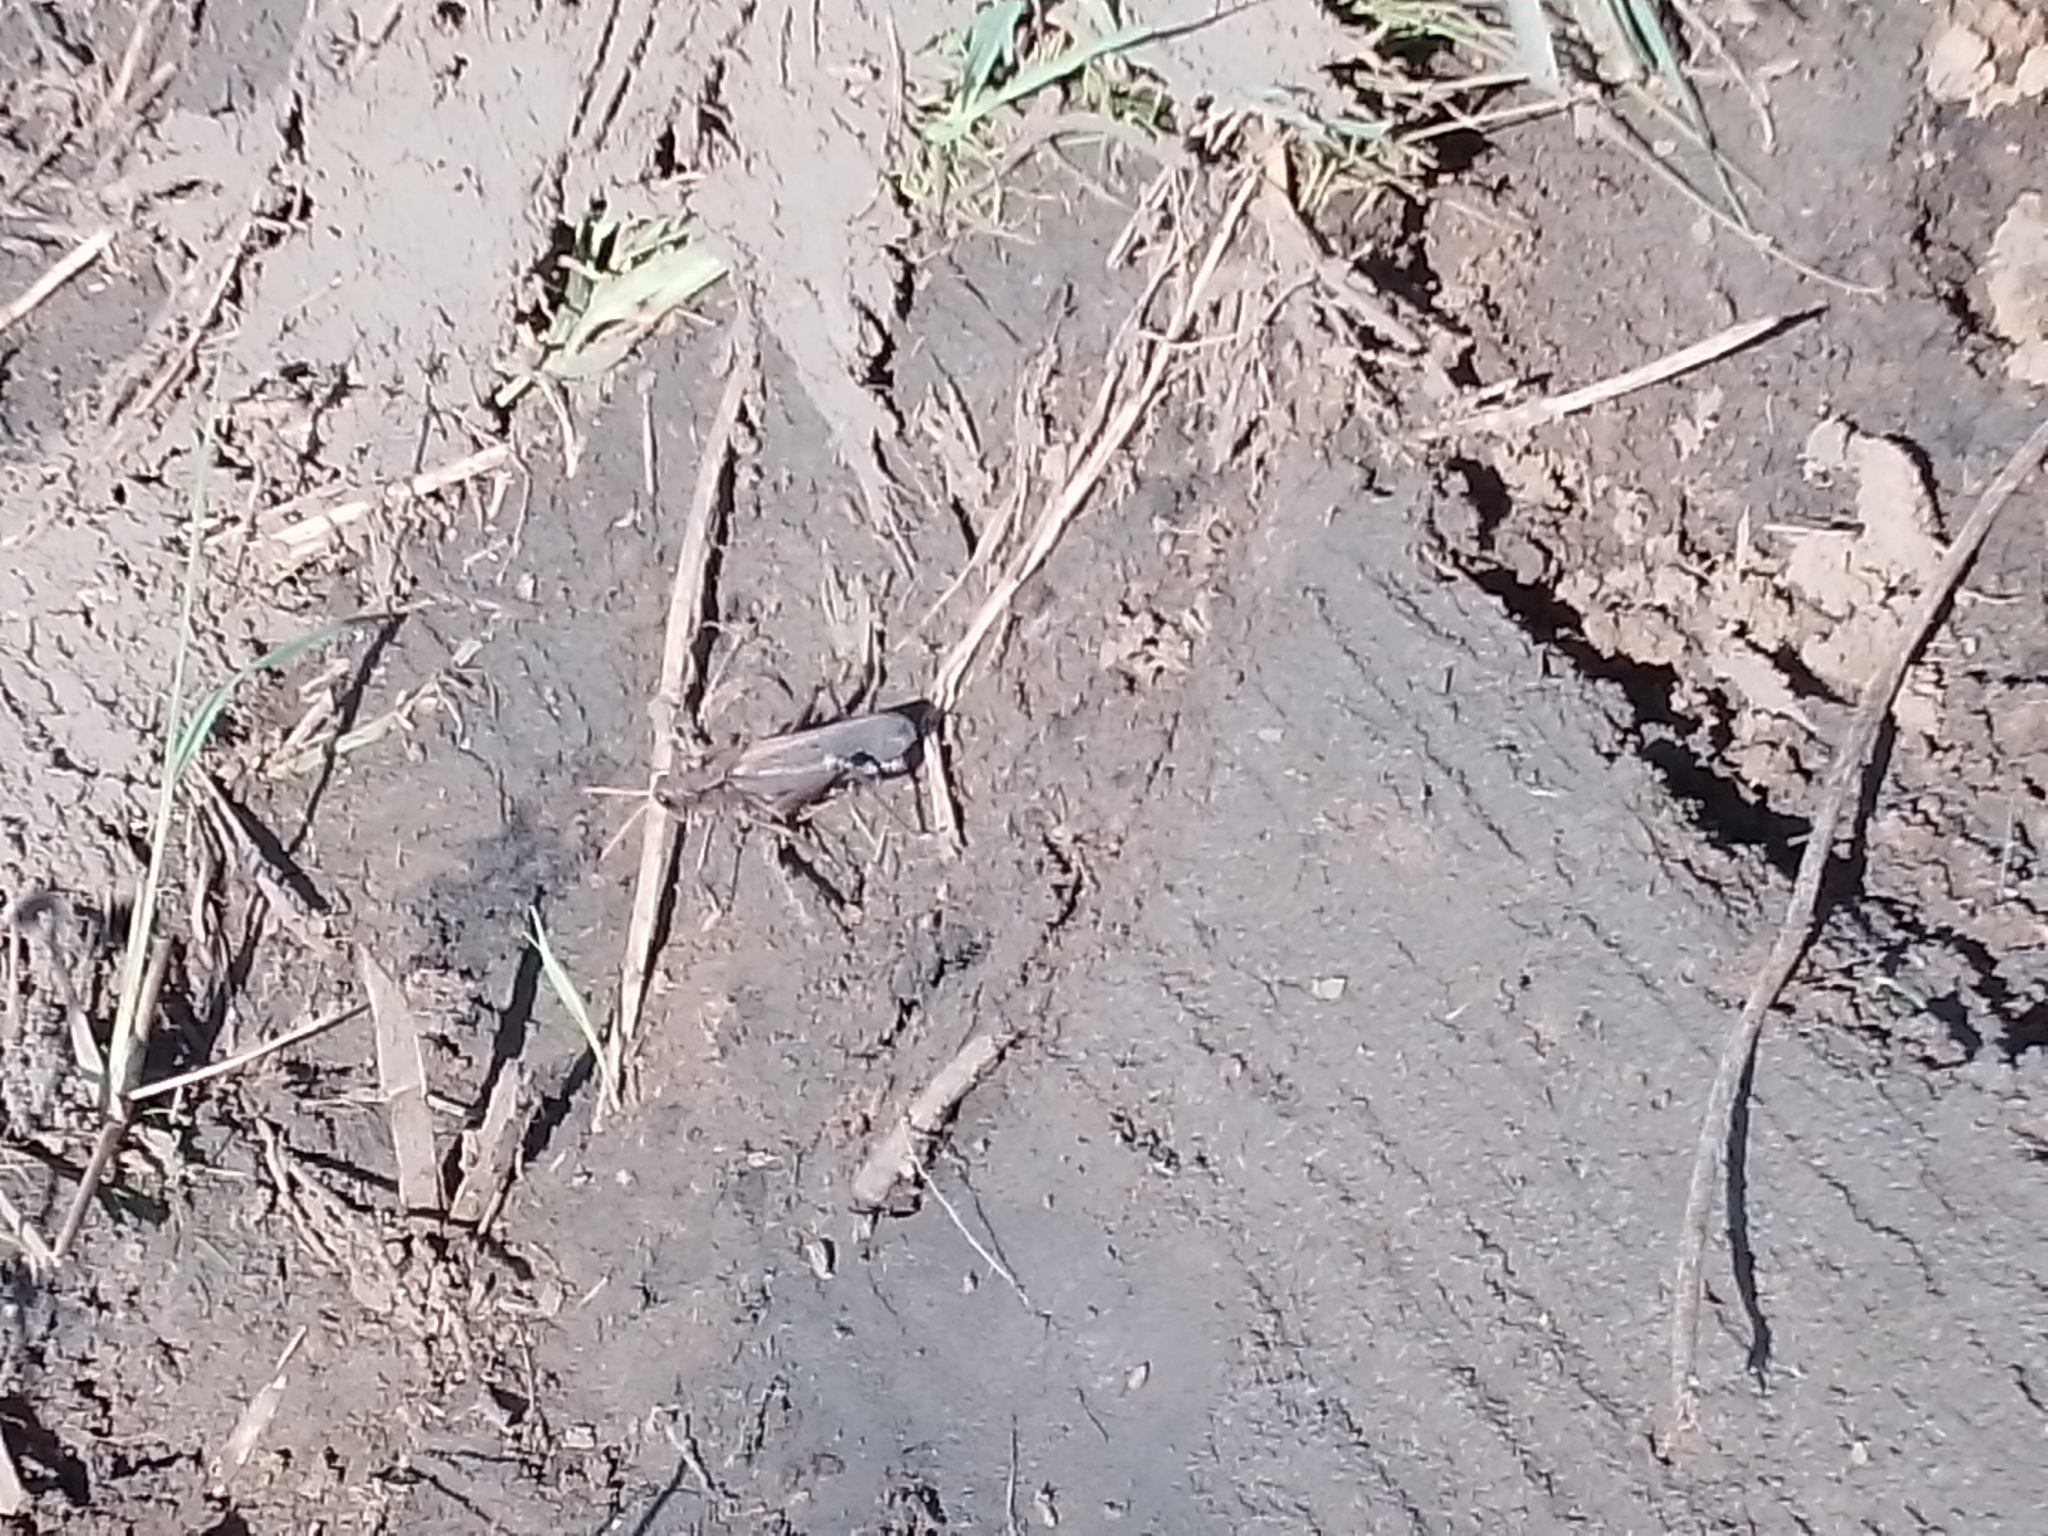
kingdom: Animalia
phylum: Arthropoda
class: Insecta
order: Orthoptera
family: Romaleidae
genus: Romalea
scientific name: Romalea
